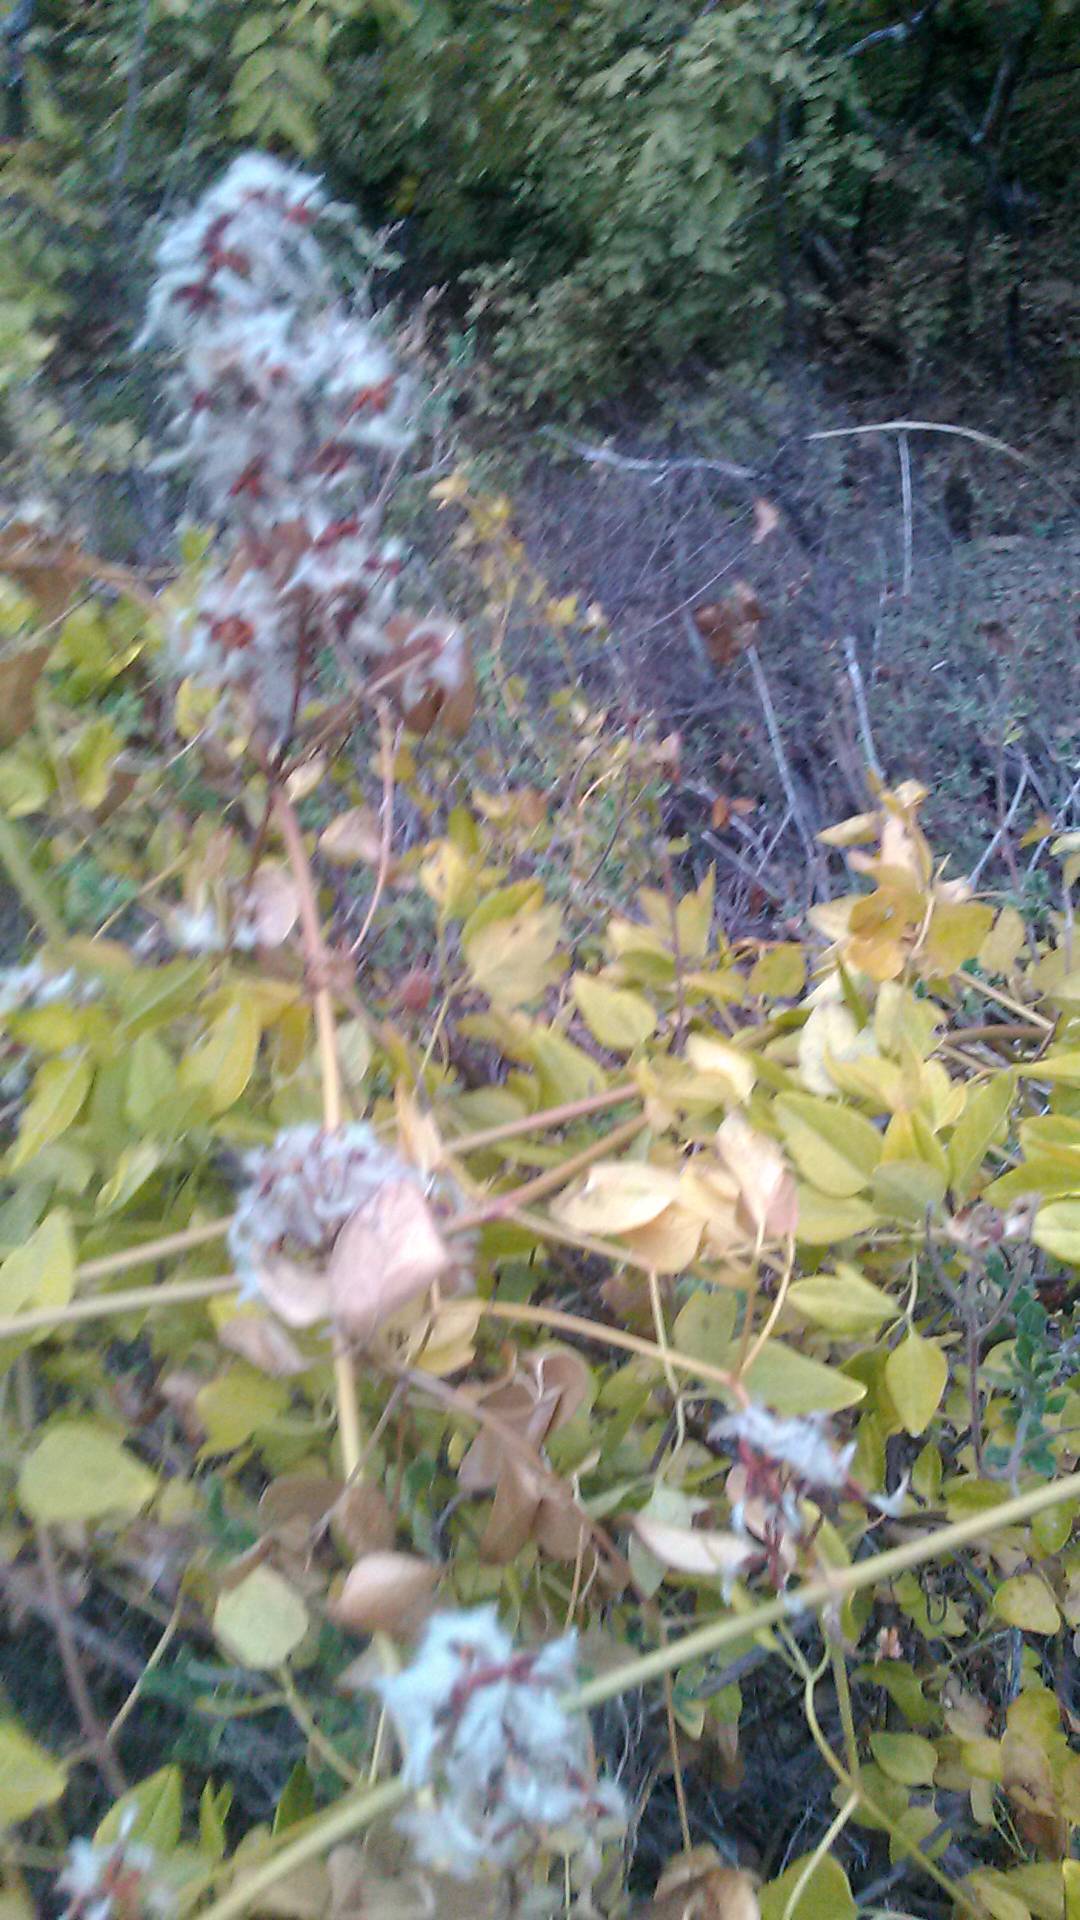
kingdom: Plantae
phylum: Tracheophyta
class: Magnoliopsida
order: Ranunculales
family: Ranunculaceae
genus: Clematis
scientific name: Clematis flammula
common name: Virgin's-bower
